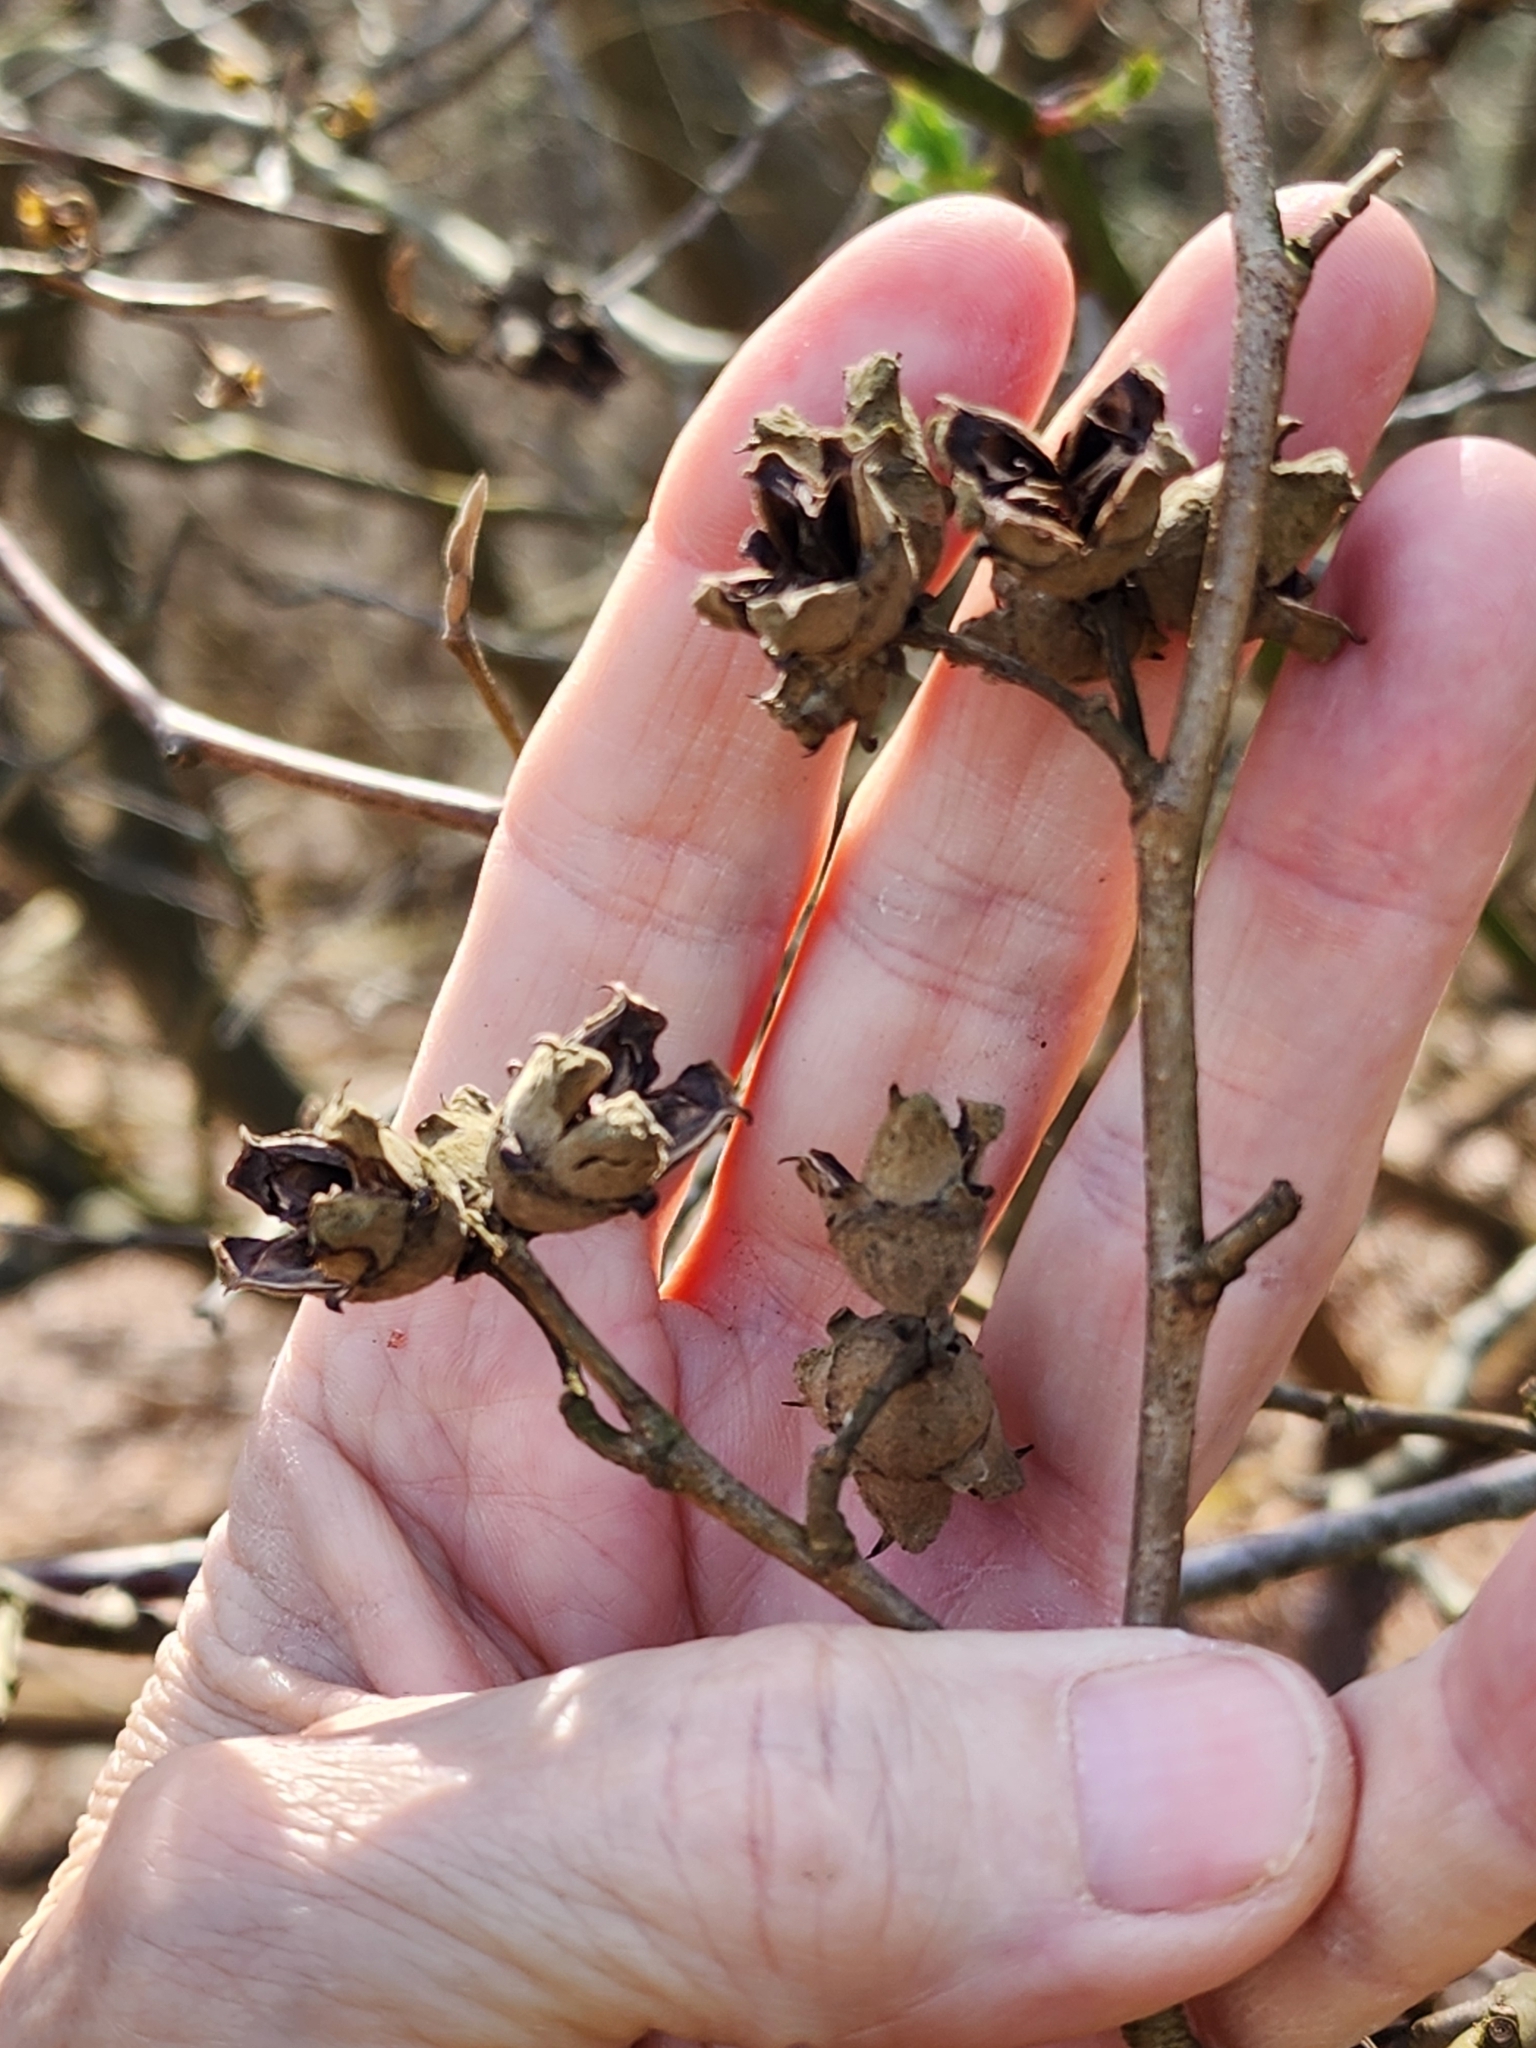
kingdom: Plantae
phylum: Tracheophyta
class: Magnoliopsida
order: Saxifragales
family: Hamamelidaceae
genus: Hamamelis
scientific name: Hamamelis virginiana
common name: Witch-hazel
